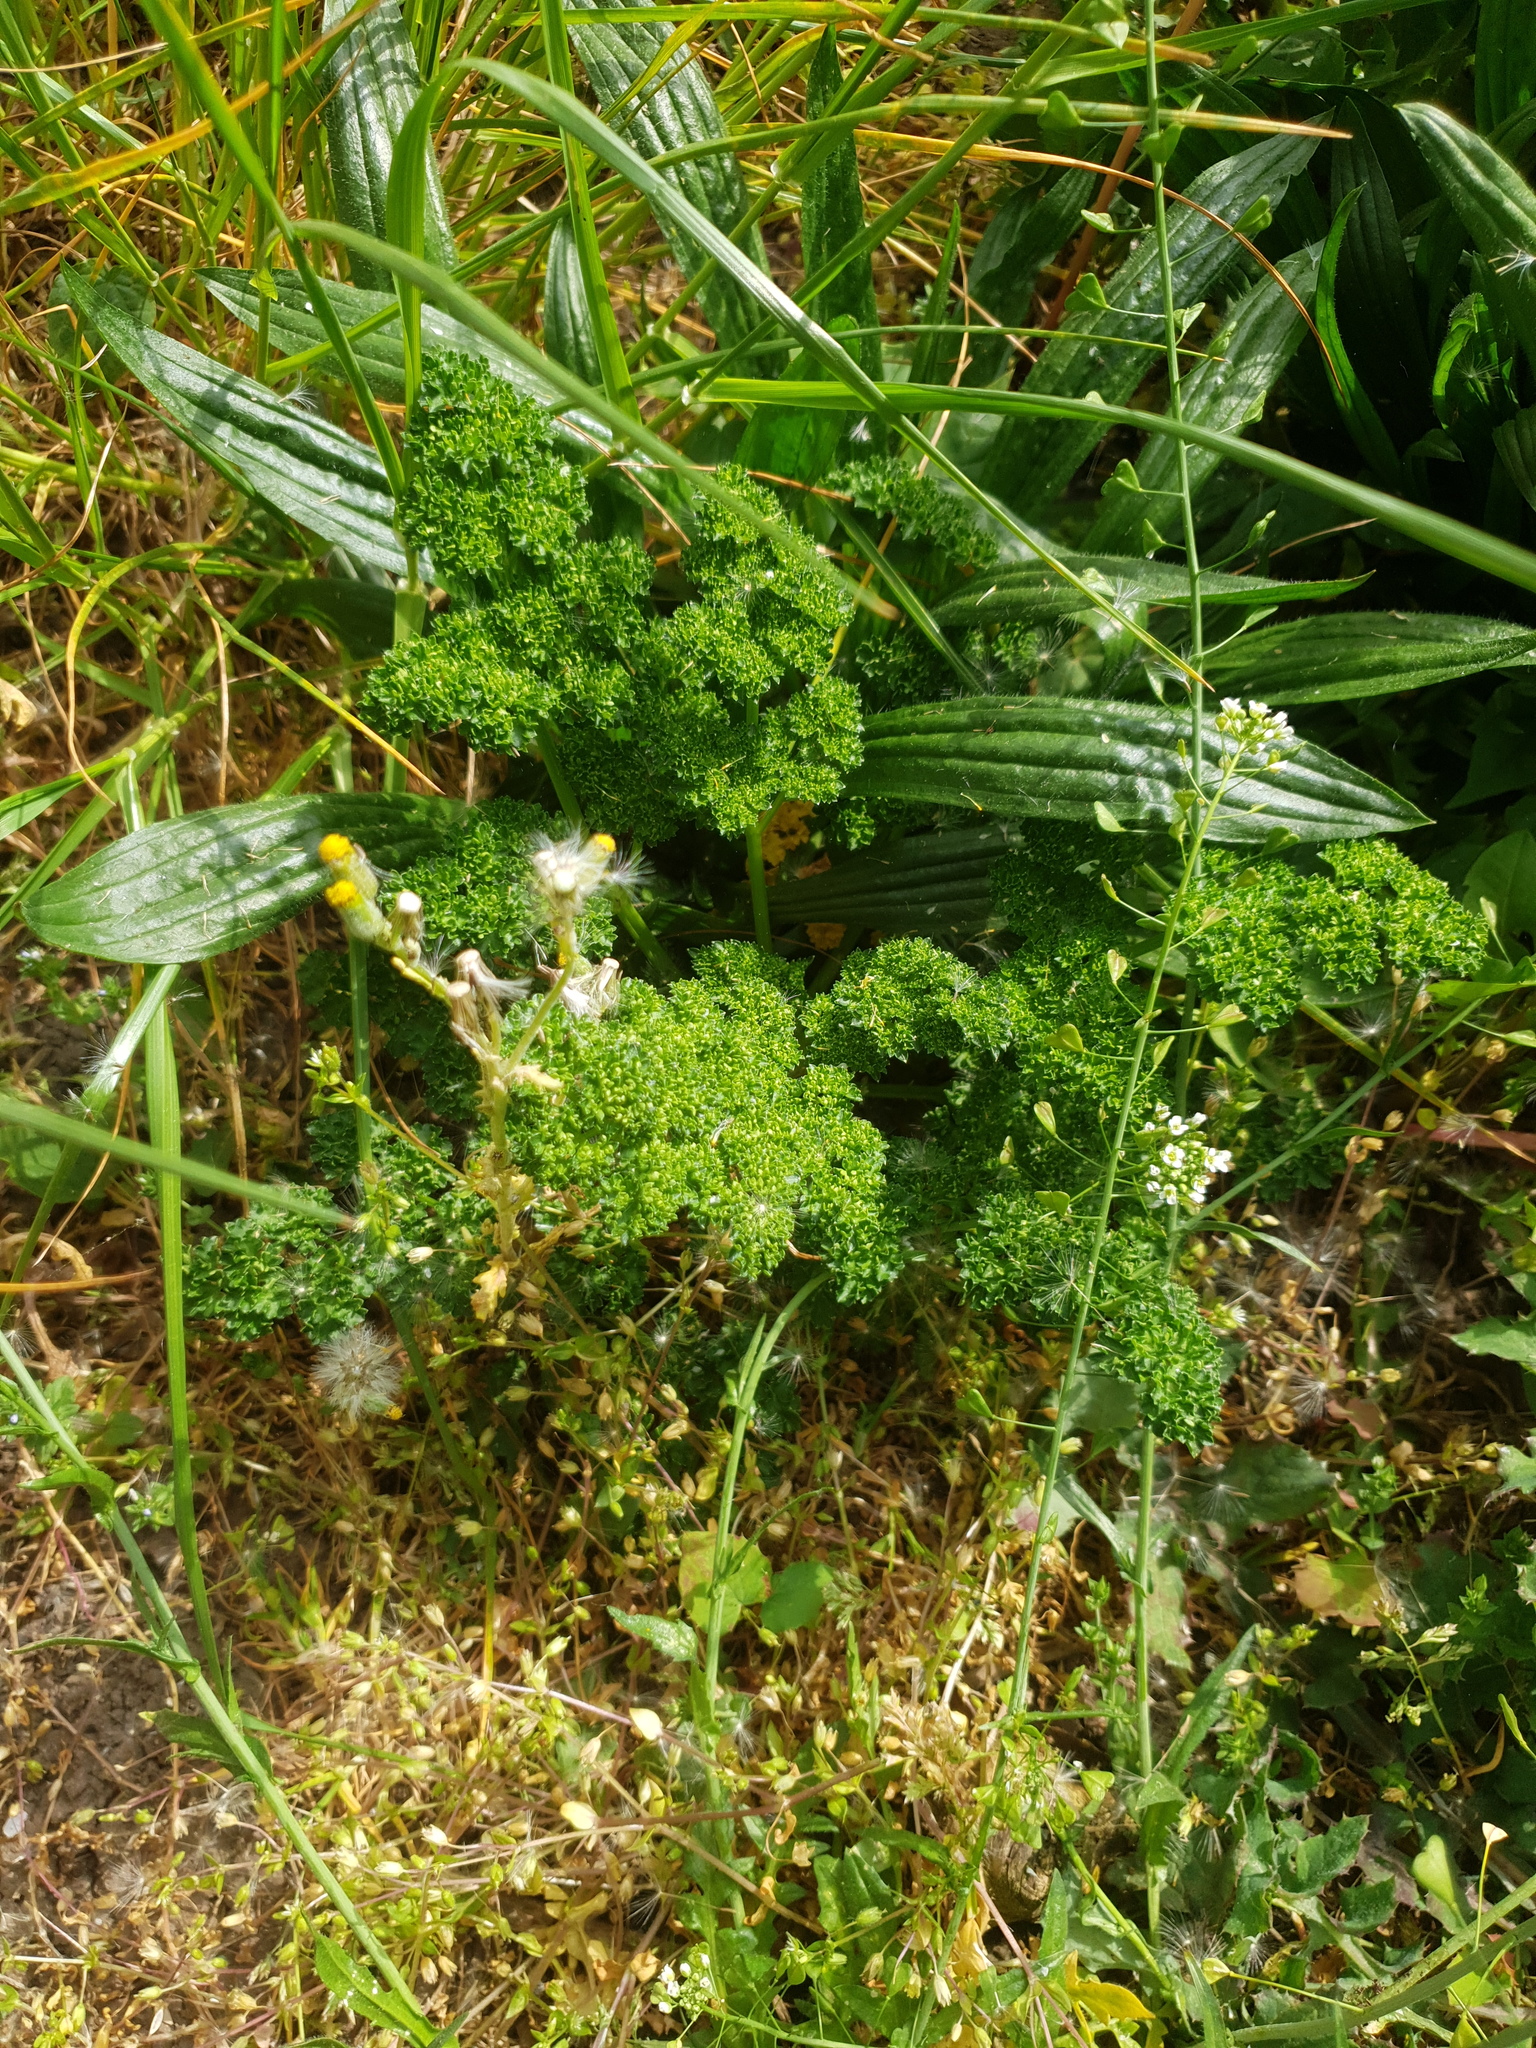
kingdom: Plantae
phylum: Tracheophyta
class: Magnoliopsida
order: Apiales
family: Apiaceae
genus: Petroselinum
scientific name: Petroselinum crispum
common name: Parsley
